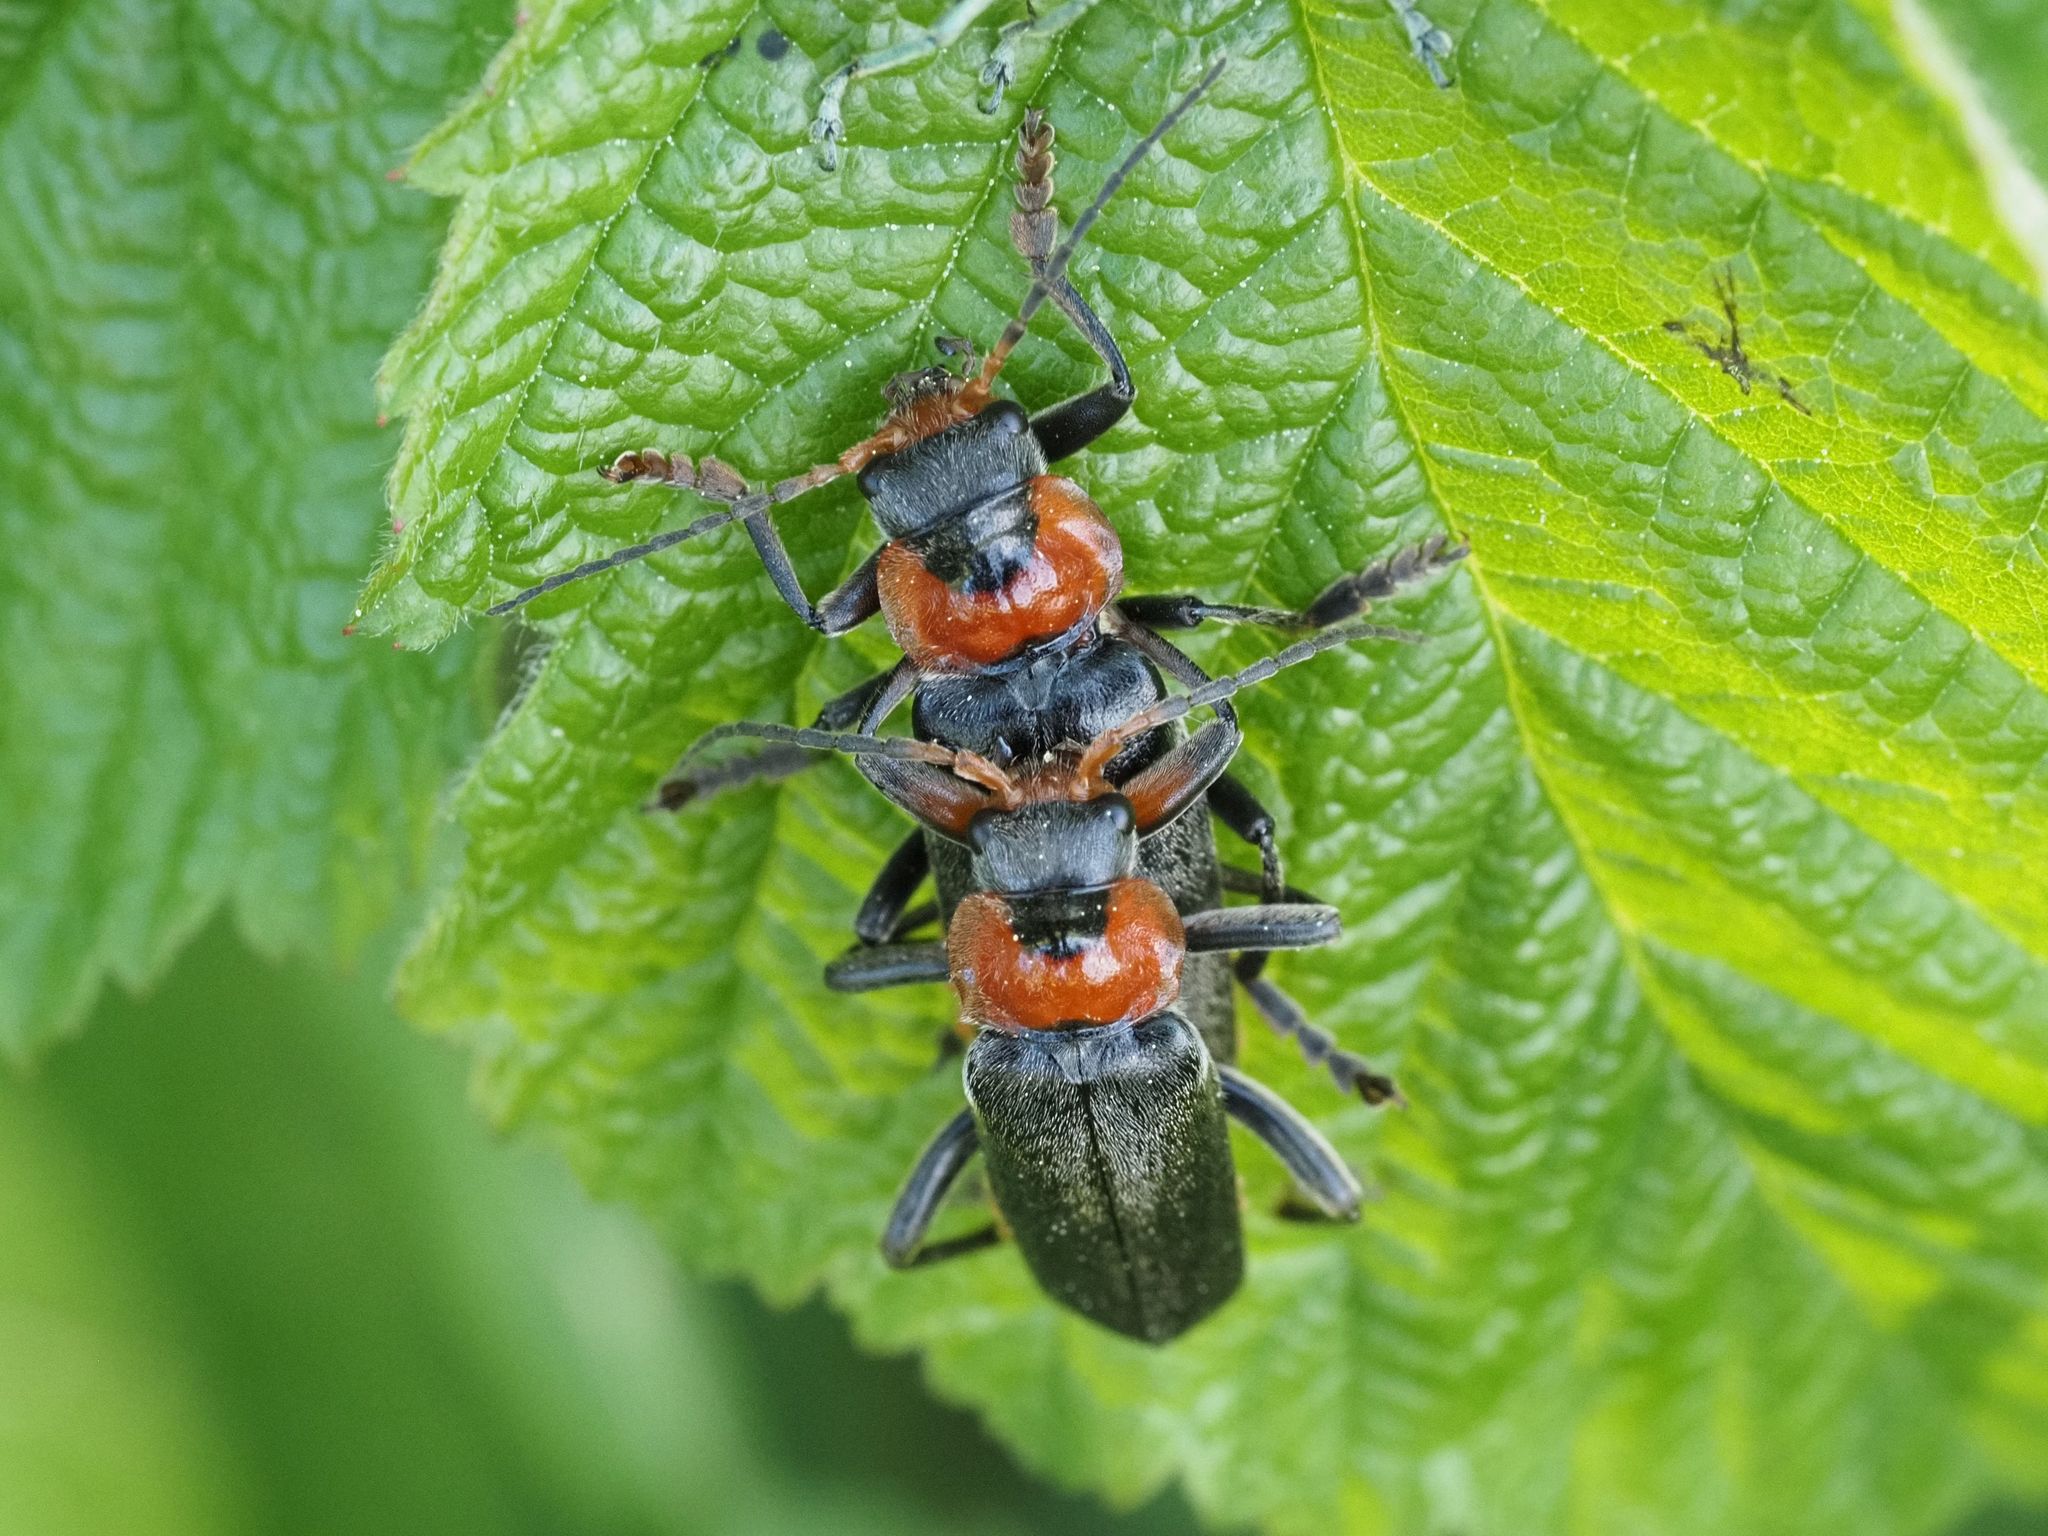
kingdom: Animalia
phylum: Arthropoda
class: Insecta
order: Coleoptera
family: Cantharidae
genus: Cantharis
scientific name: Cantharis fusca
